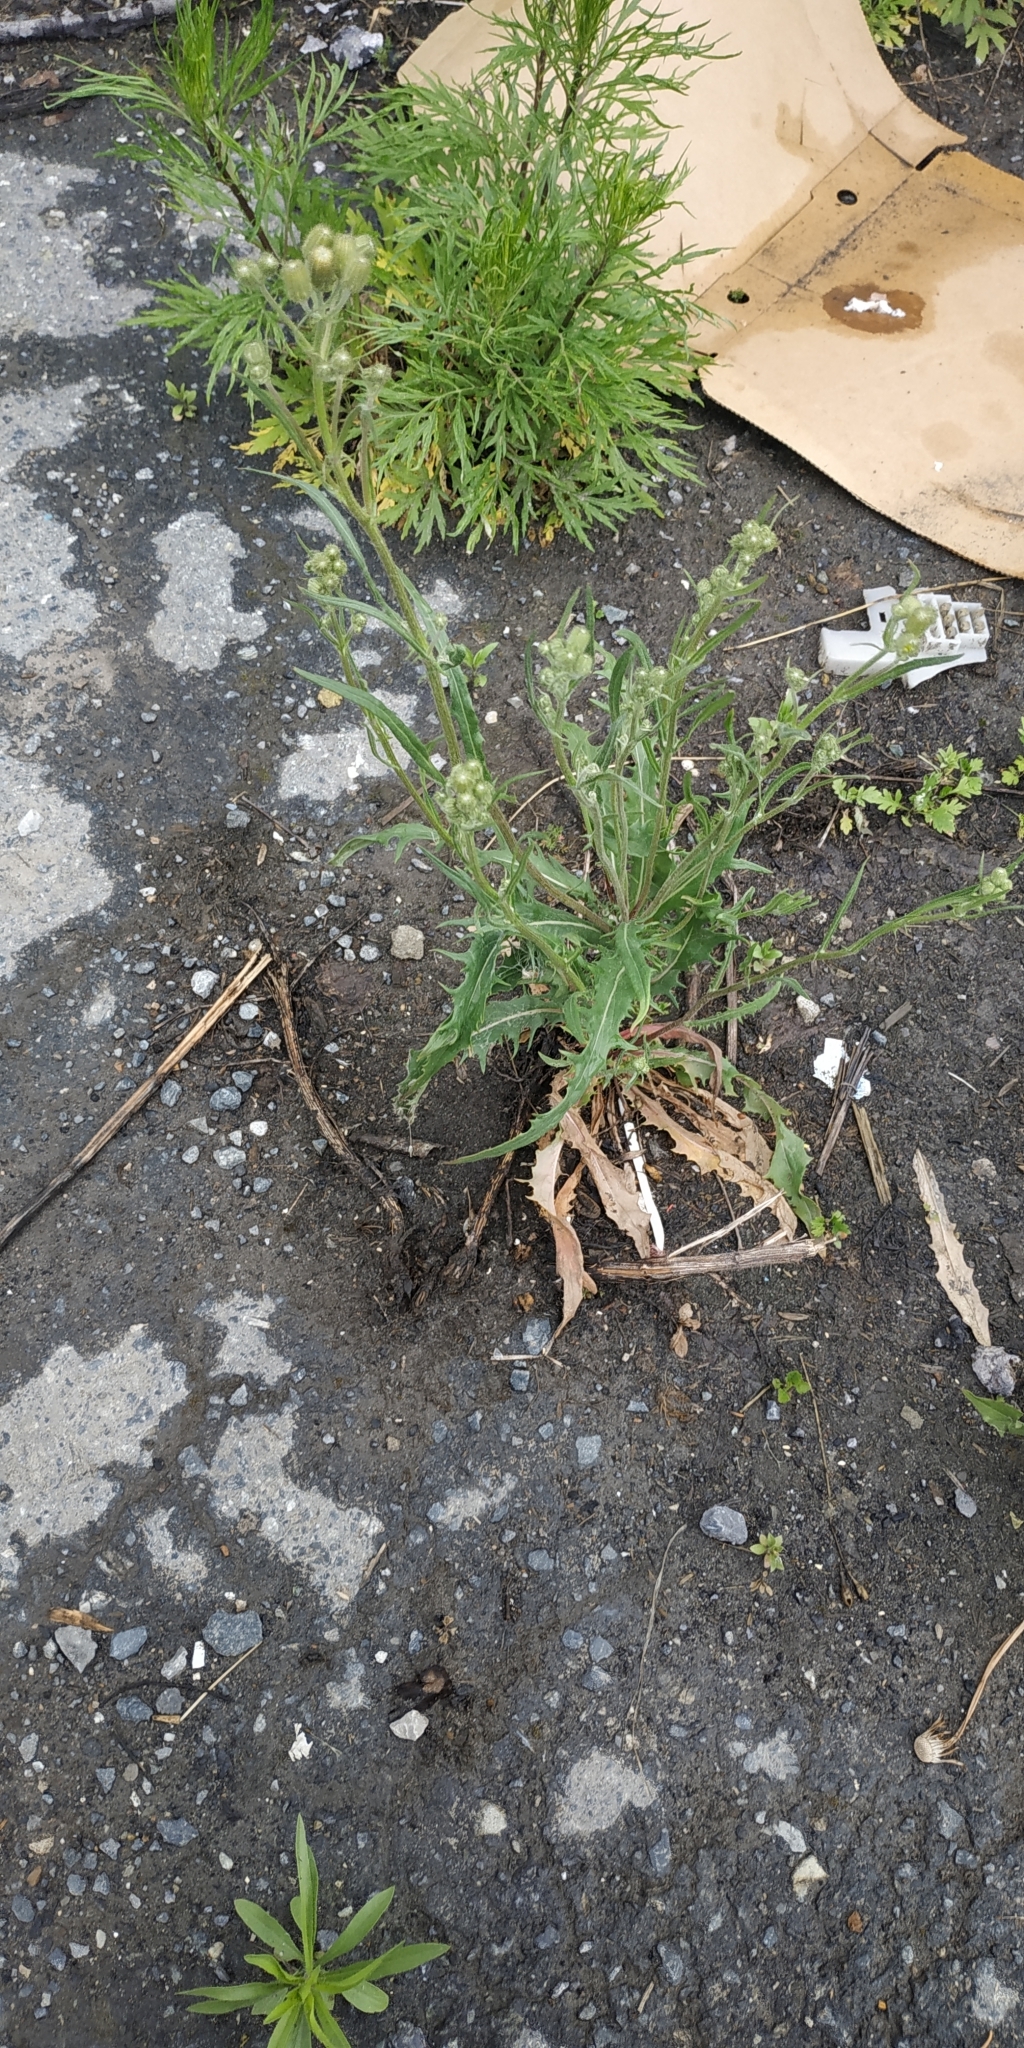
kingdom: Plantae
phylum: Tracheophyta
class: Magnoliopsida
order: Asterales
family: Asteraceae
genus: Crepis
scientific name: Crepis tectorum
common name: Narrow-leaved hawk's-beard
